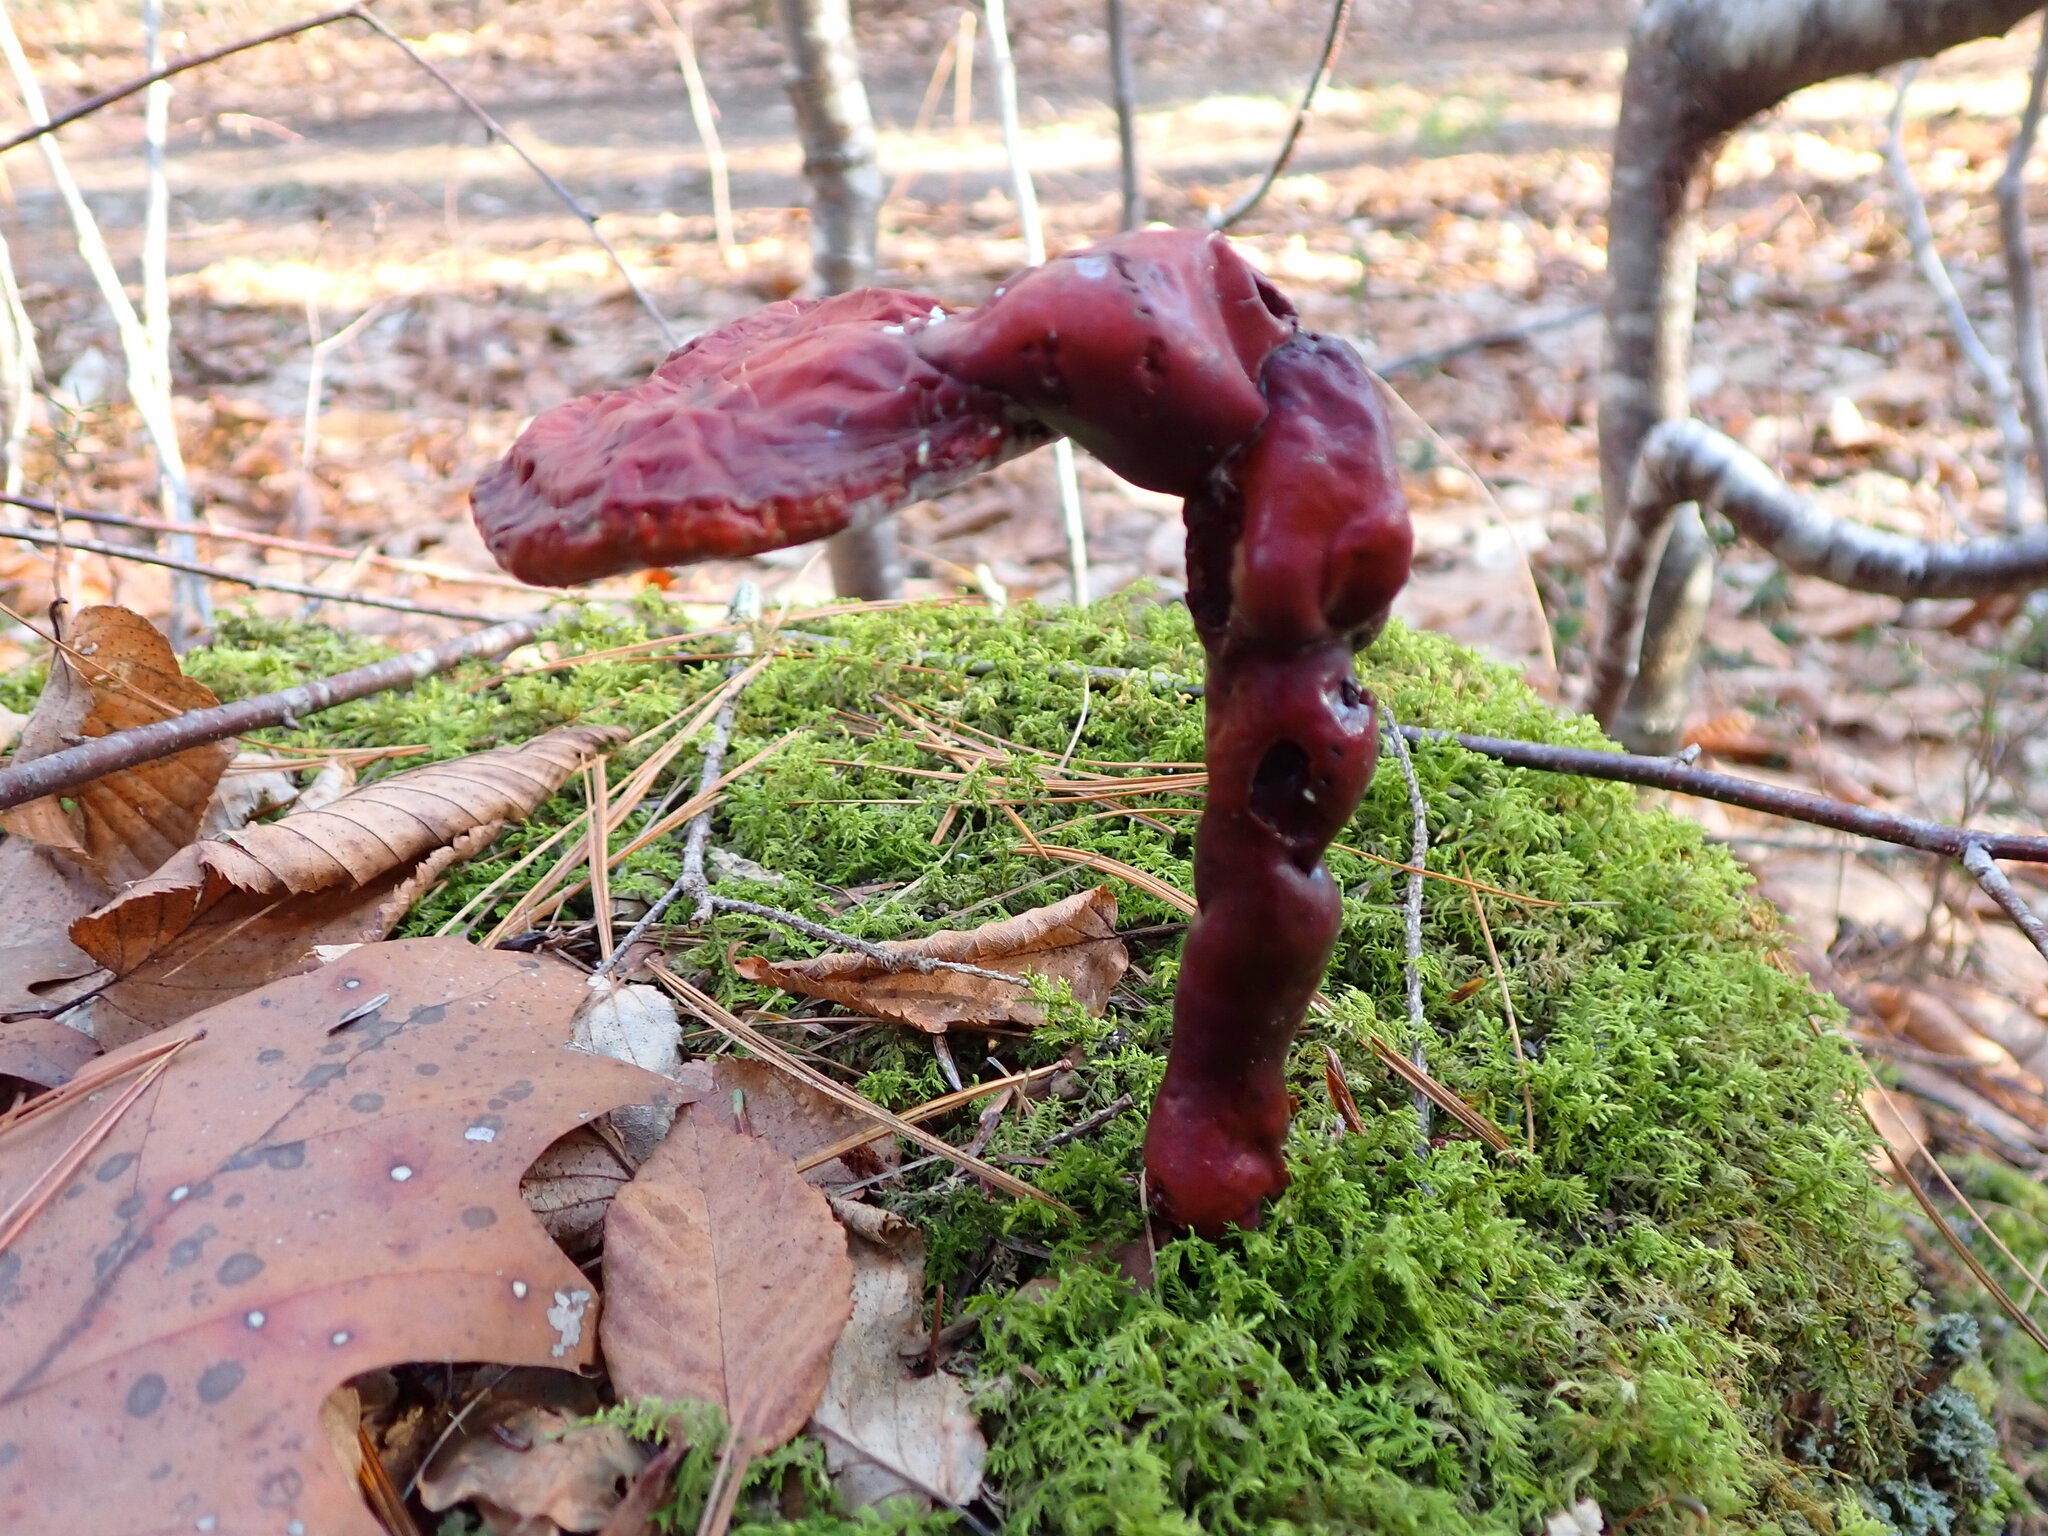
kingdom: Fungi
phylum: Basidiomycota
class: Agaricomycetes
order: Polyporales
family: Polyporaceae
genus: Ganoderma
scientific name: Ganoderma tsugae
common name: Hemlock varnish shelf
